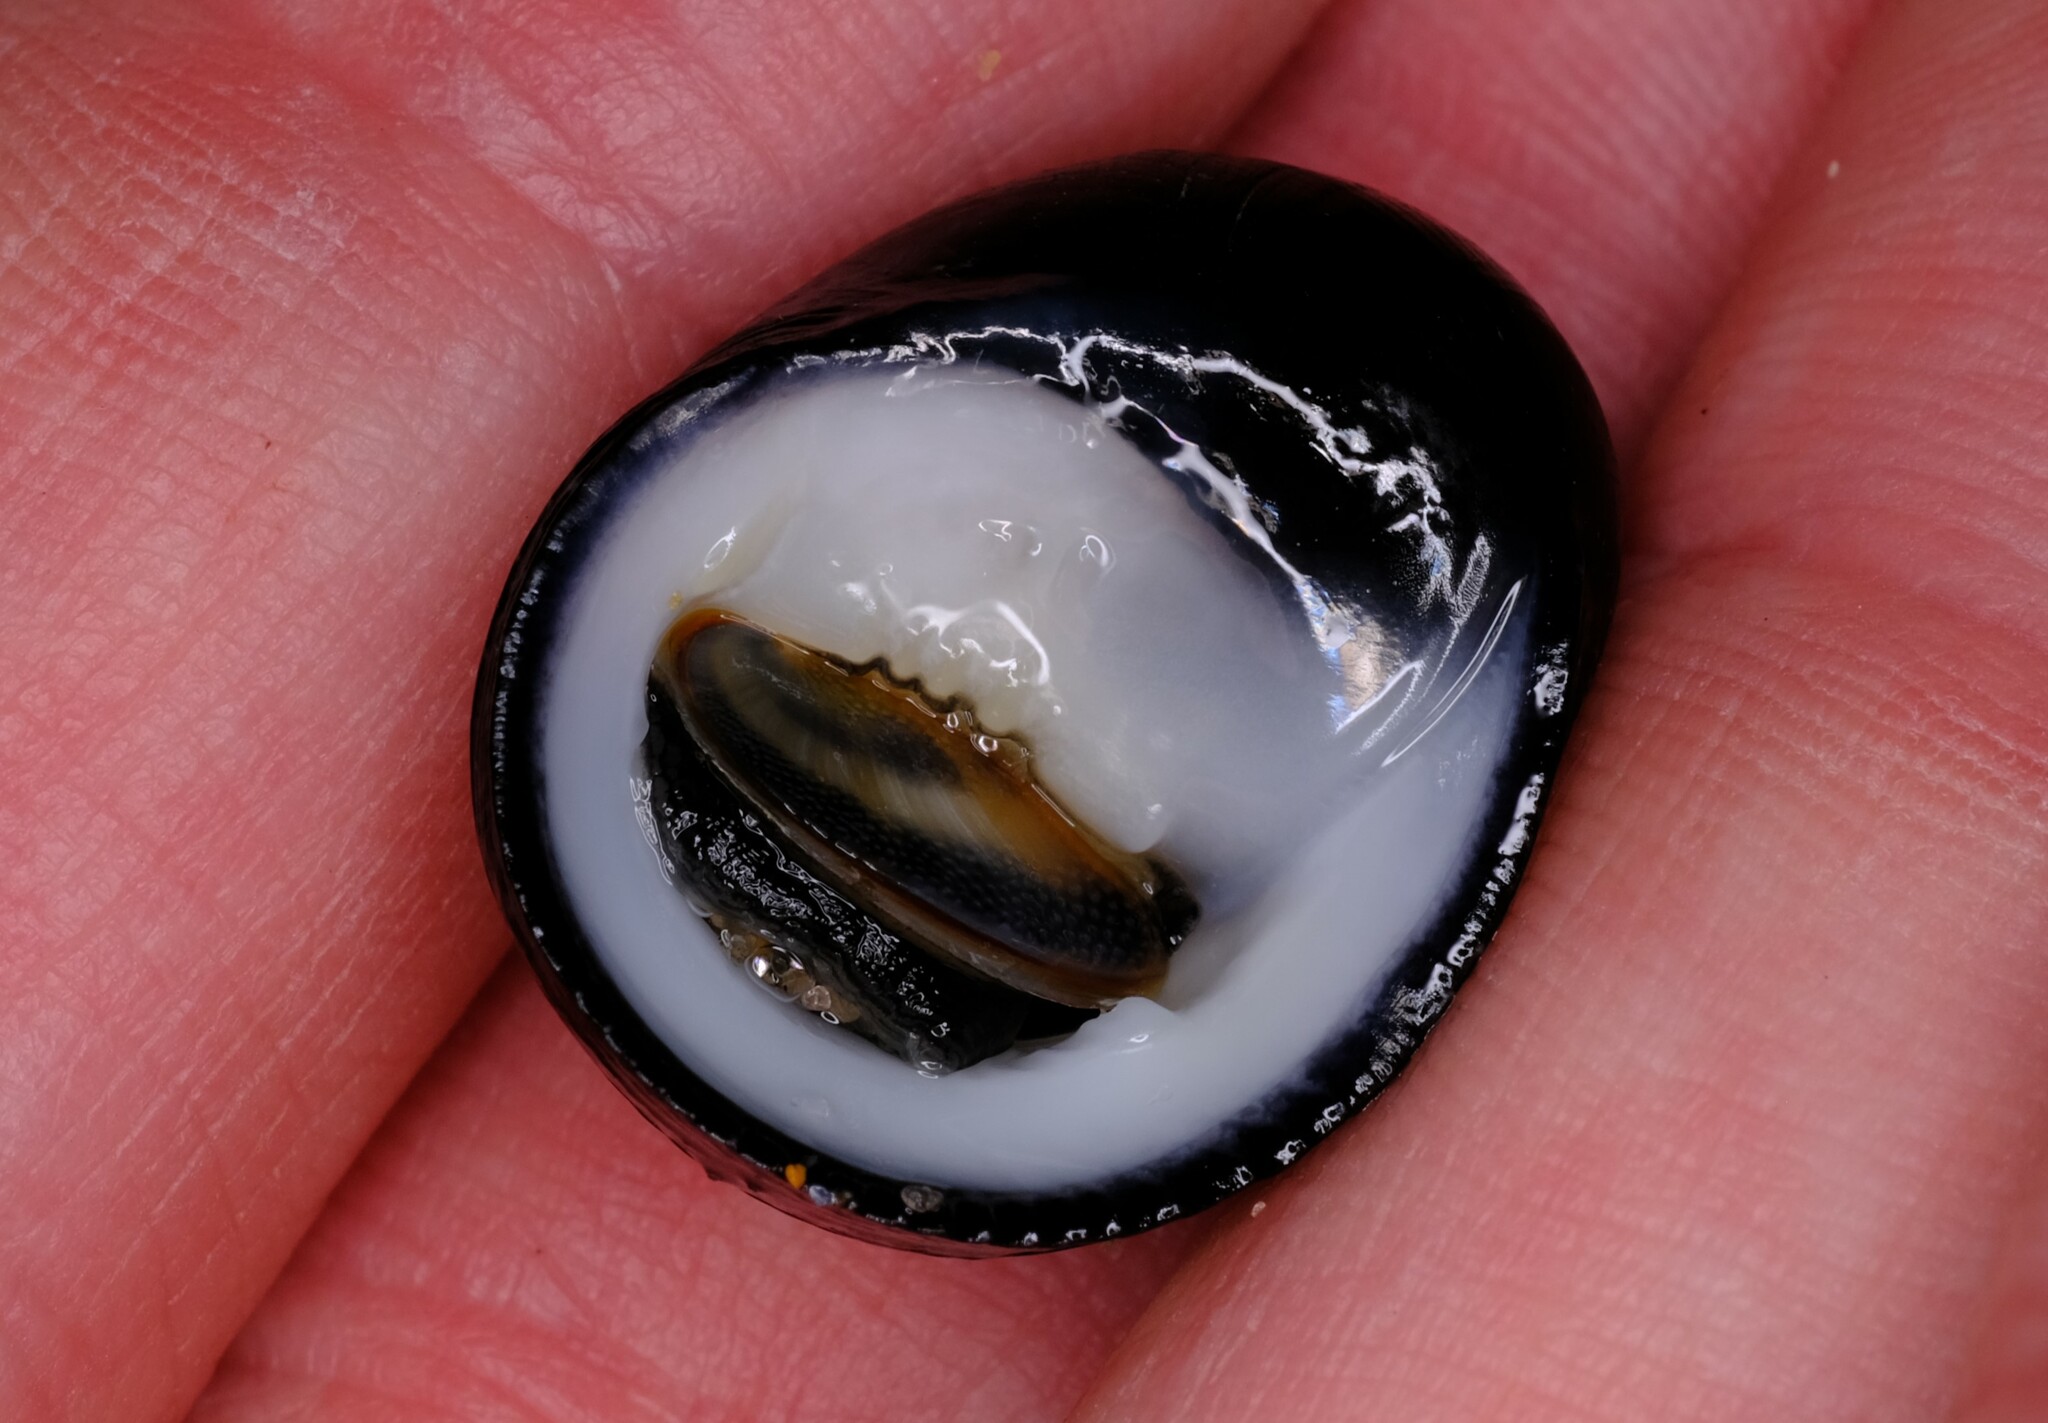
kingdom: Animalia
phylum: Mollusca
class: Gastropoda
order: Cycloneritida
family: Neritidae
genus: Nerita
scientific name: Nerita melanotragus
